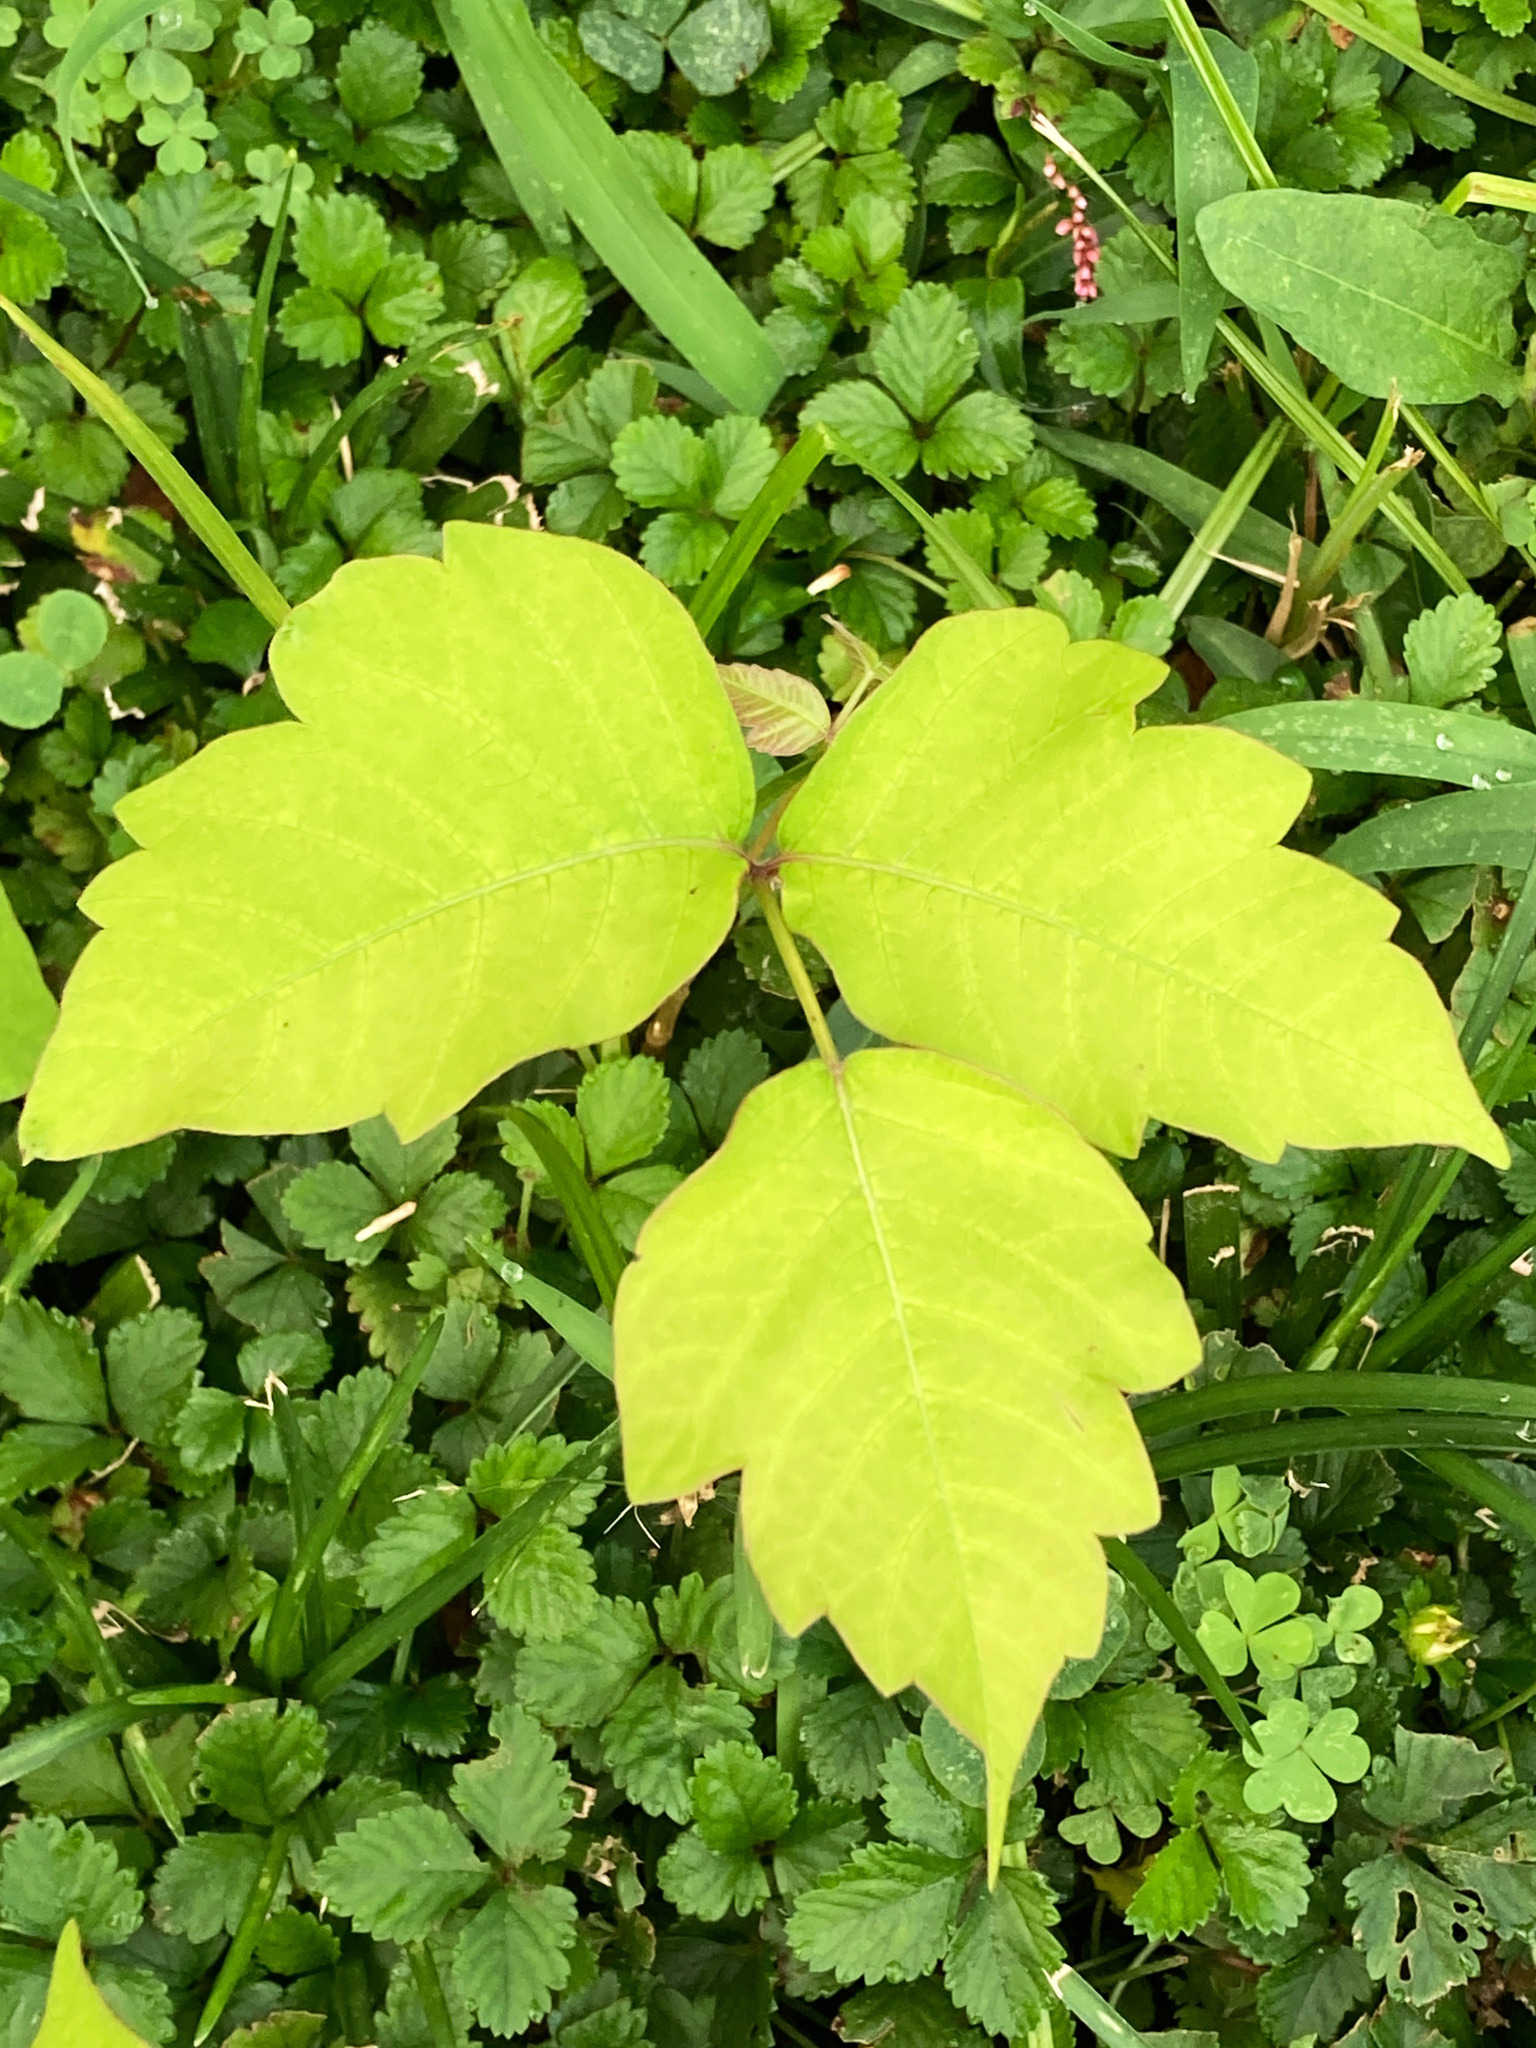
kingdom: Plantae
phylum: Tracheophyta
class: Magnoliopsida
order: Sapindales
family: Anacardiaceae
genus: Toxicodendron
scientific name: Toxicodendron radicans
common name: Poison ivy
